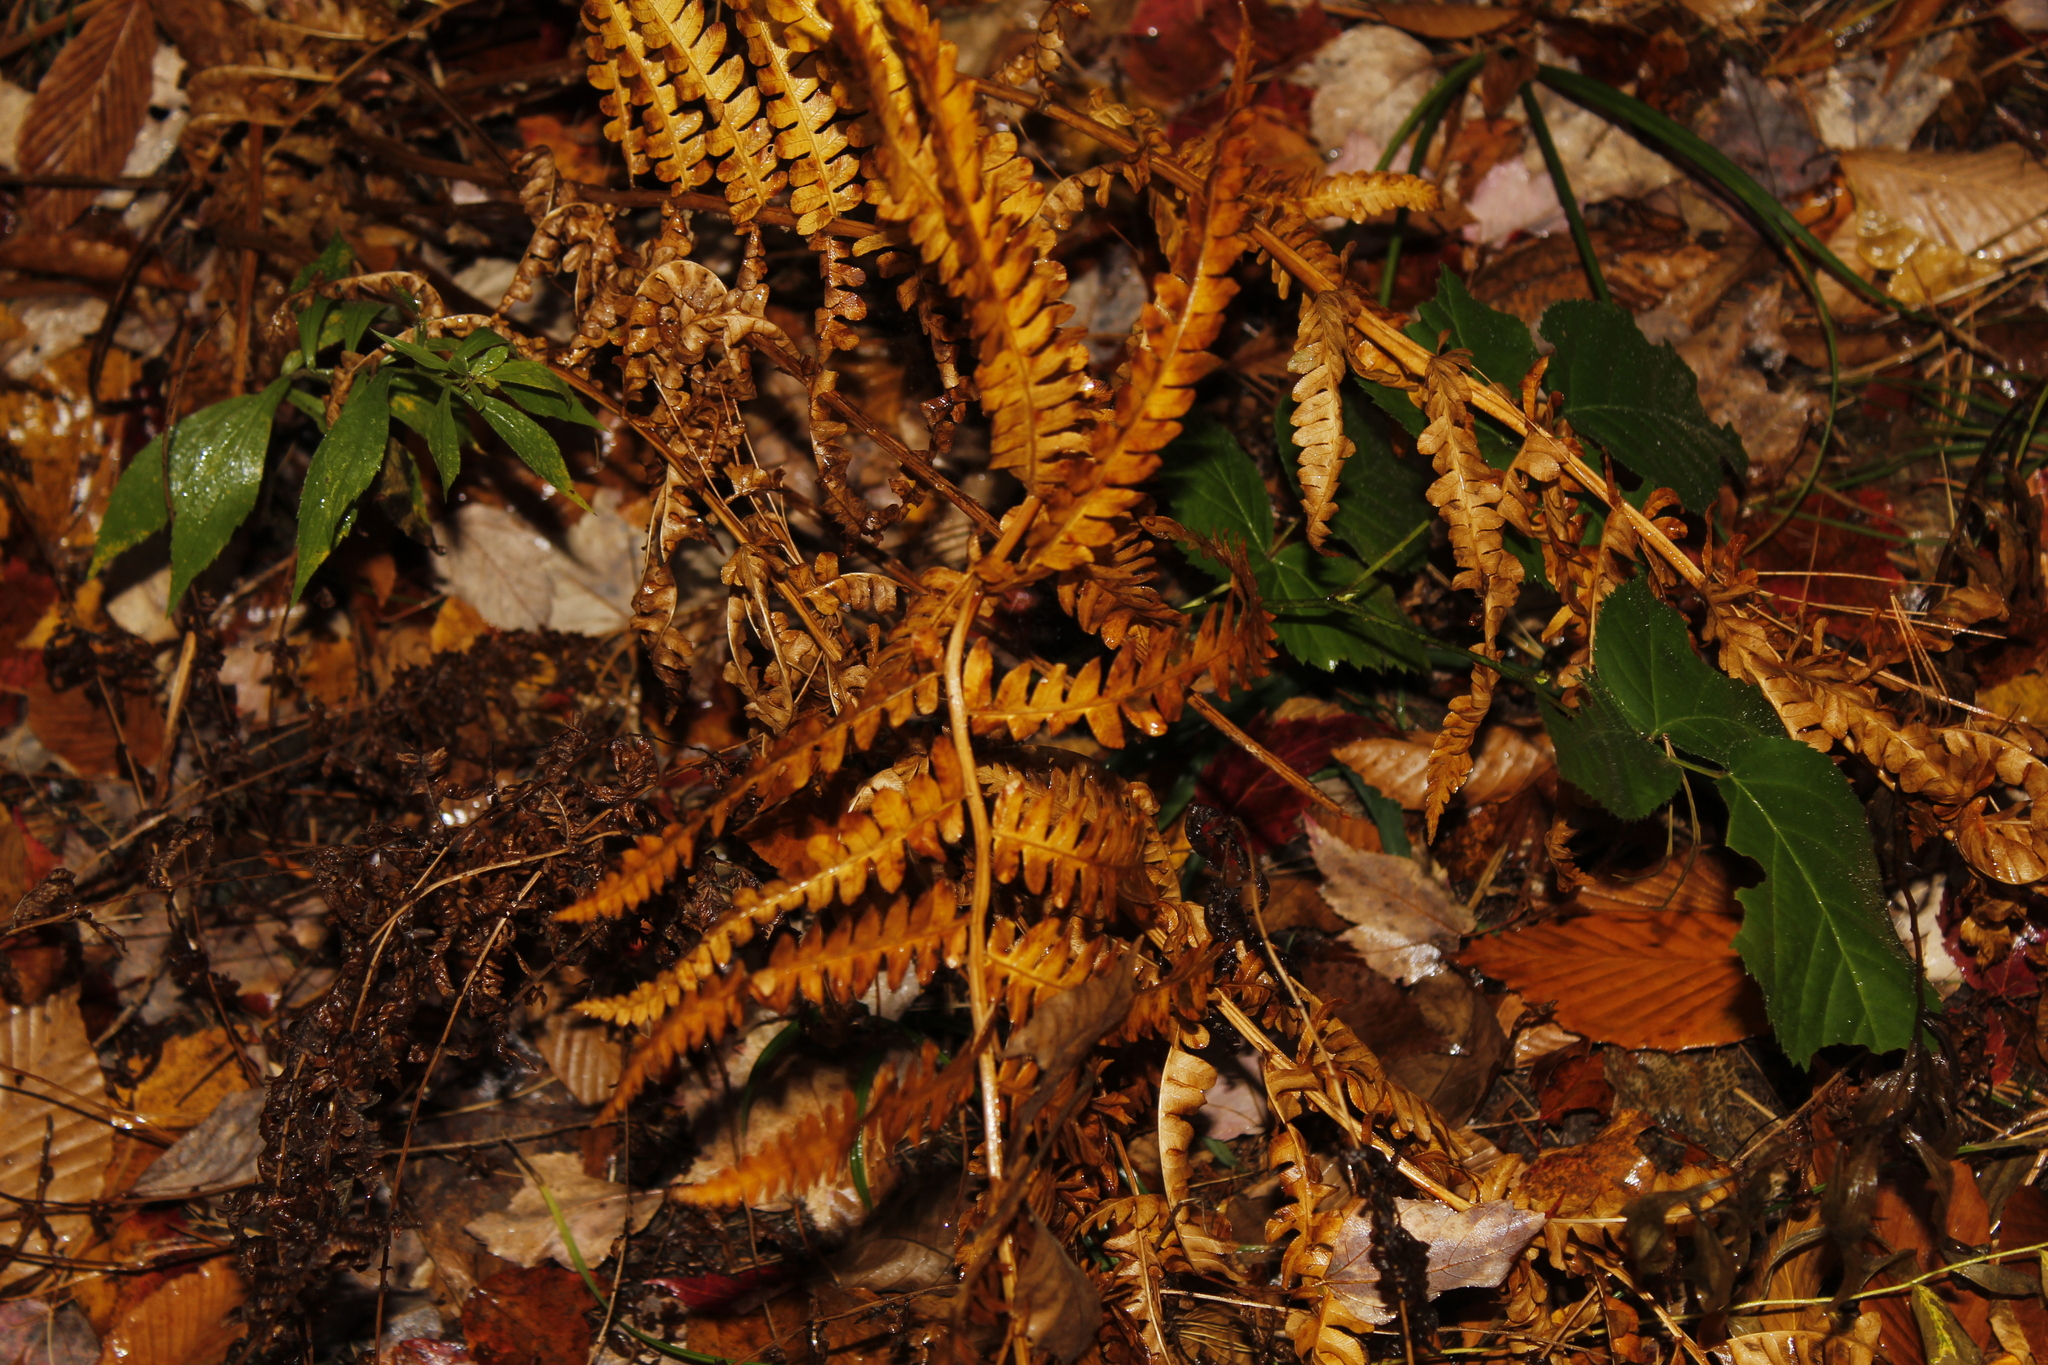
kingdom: Plantae
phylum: Tracheophyta
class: Polypodiopsida
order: Osmundales
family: Osmundaceae
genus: Osmundastrum
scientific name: Osmundastrum cinnamomeum
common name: Cinnamon fern
